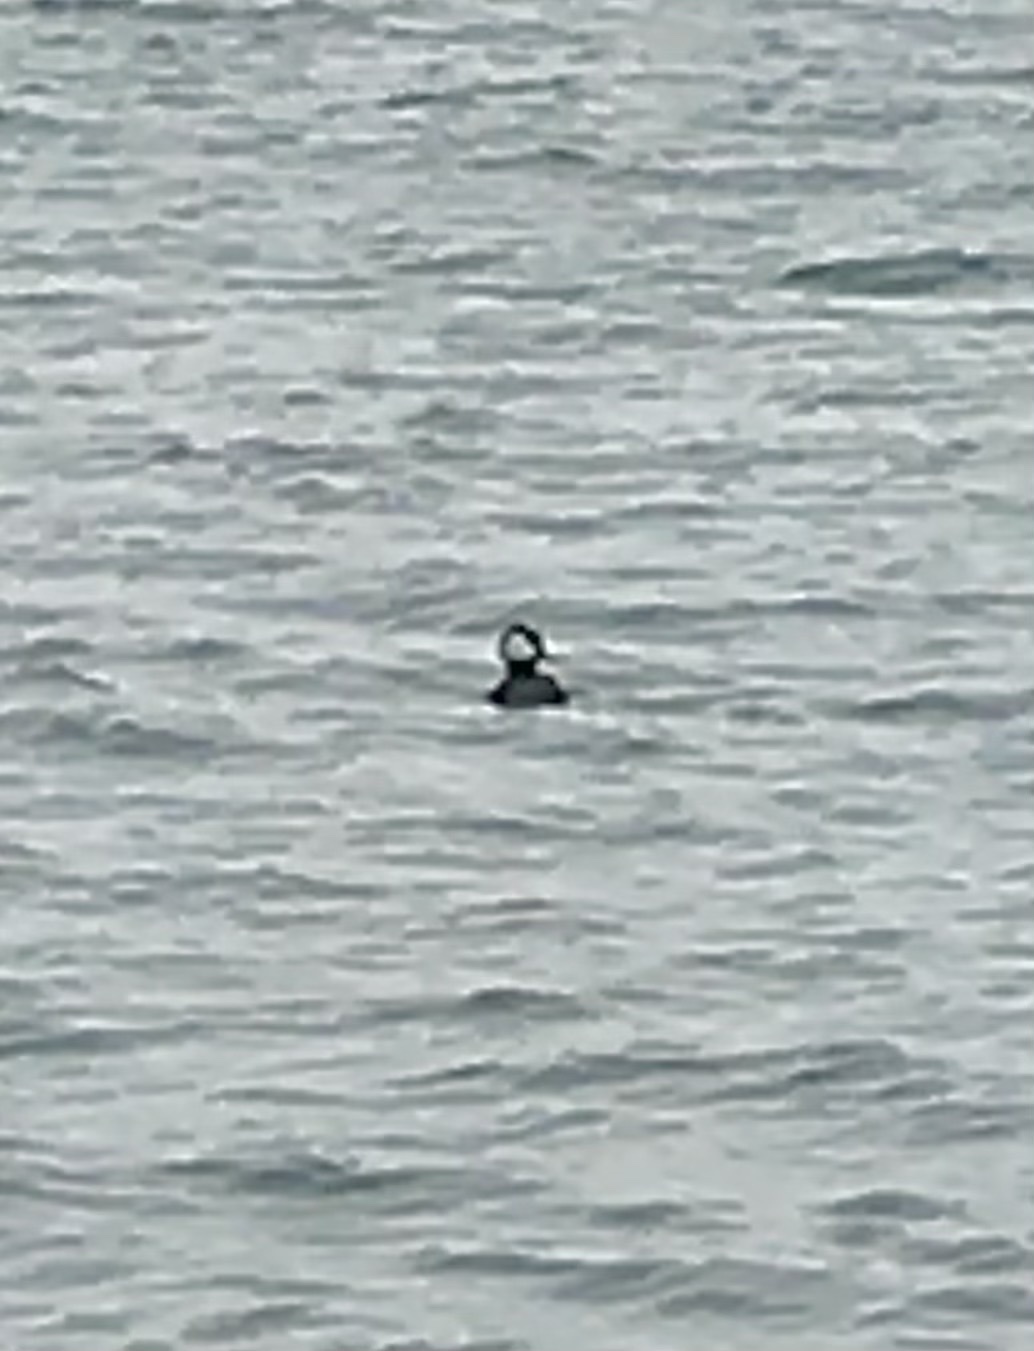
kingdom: Animalia
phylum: Chordata
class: Aves
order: Anseriformes
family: Anatidae
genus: Lophodytes
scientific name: Lophodytes cucullatus
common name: Hooded merganser
